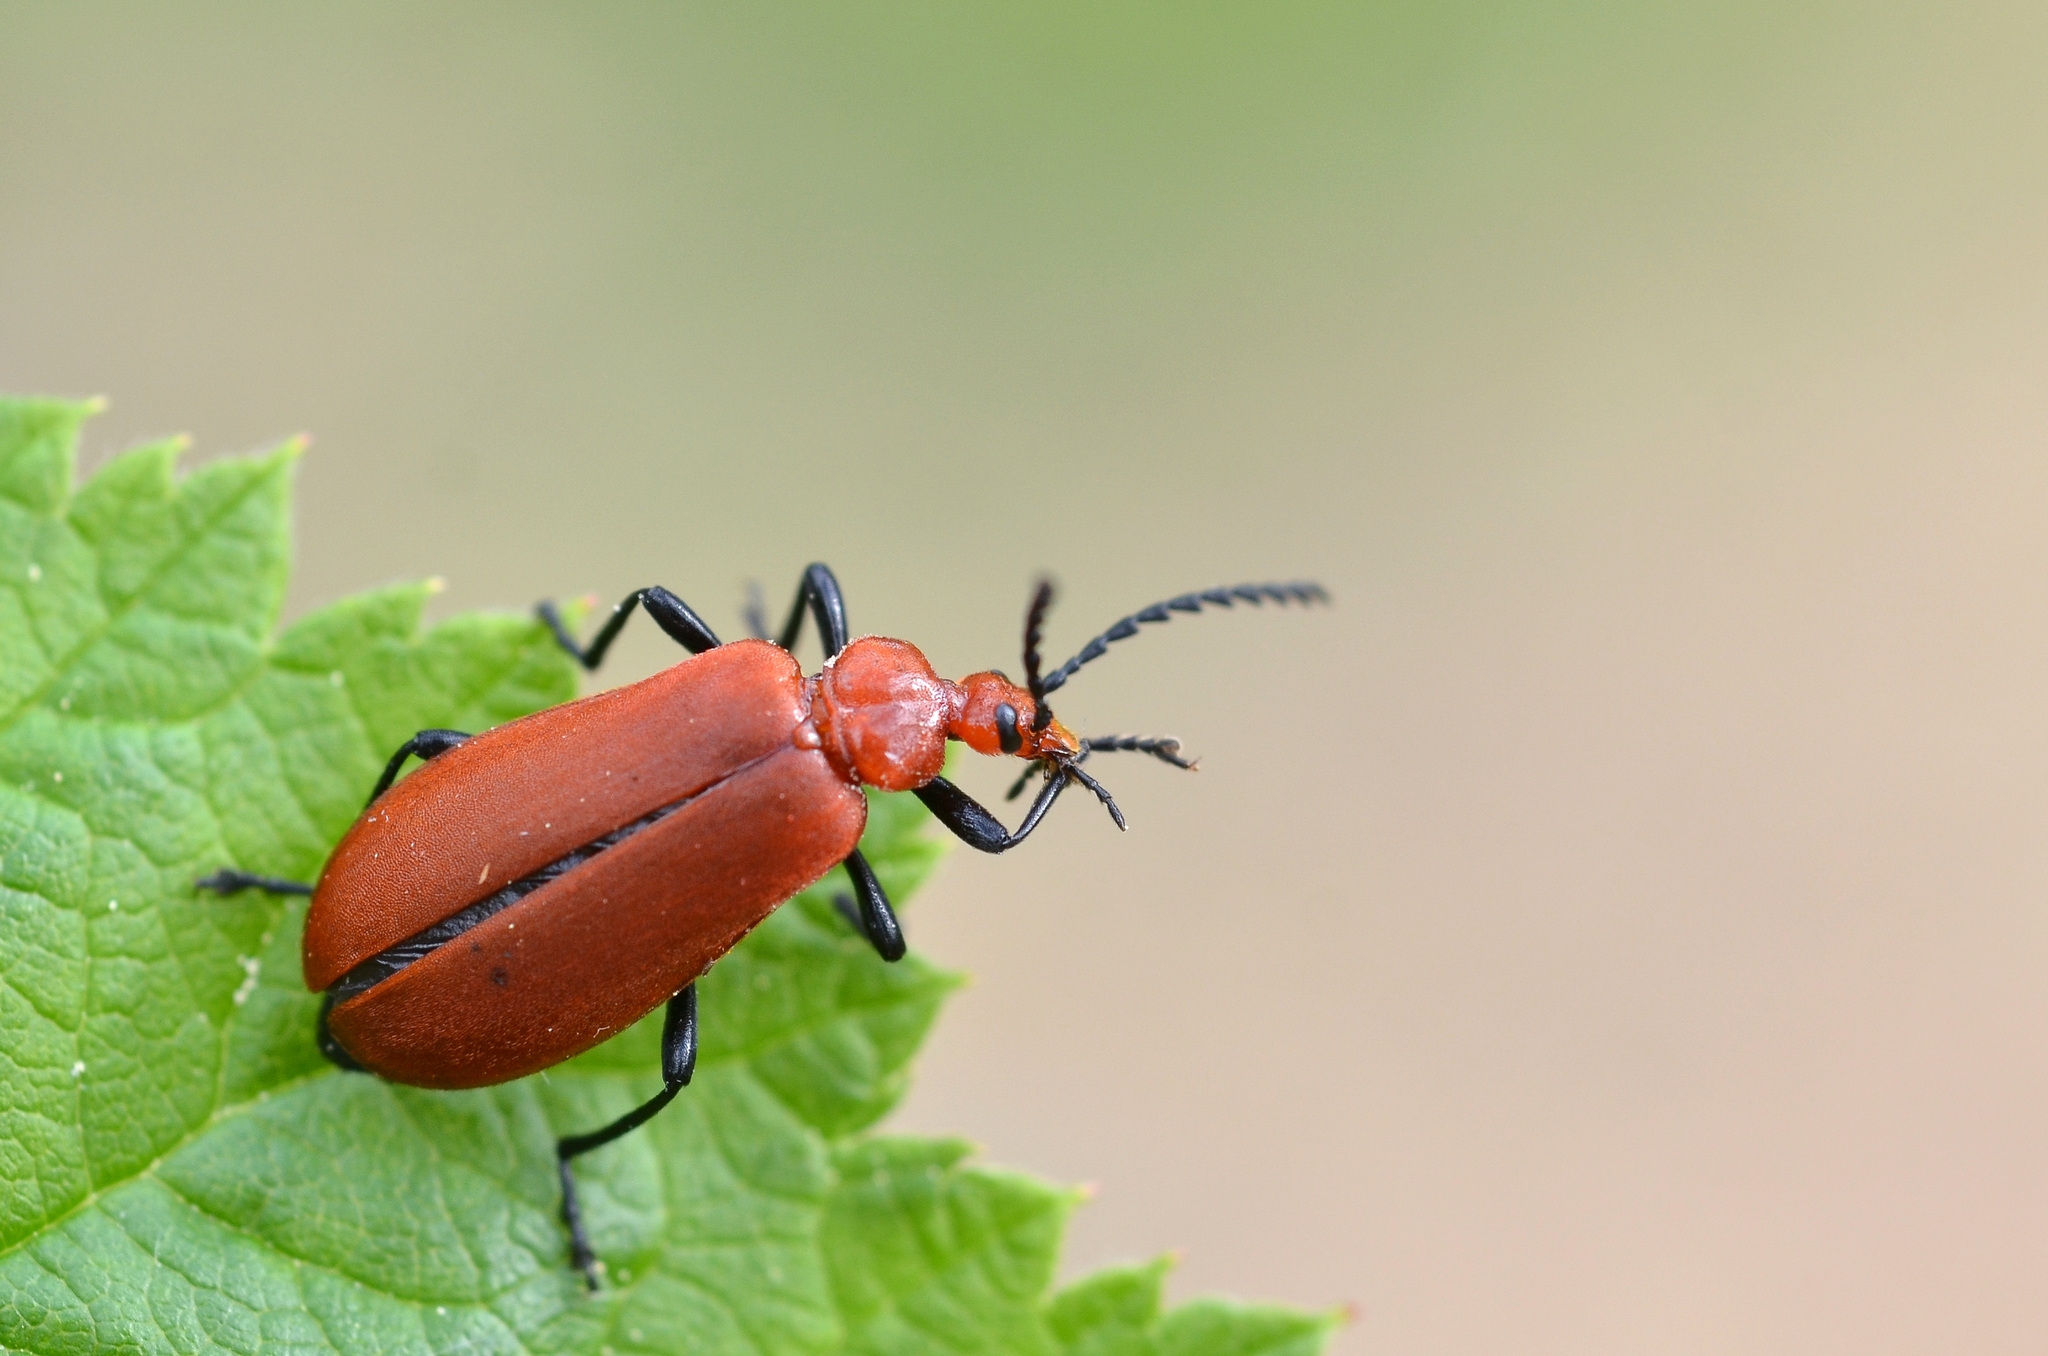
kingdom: Animalia
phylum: Arthropoda
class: Insecta
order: Coleoptera
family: Pyrochroidae
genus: Pyrochroa
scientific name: Pyrochroa serraticornis
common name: Red-headed cardinal beetle
